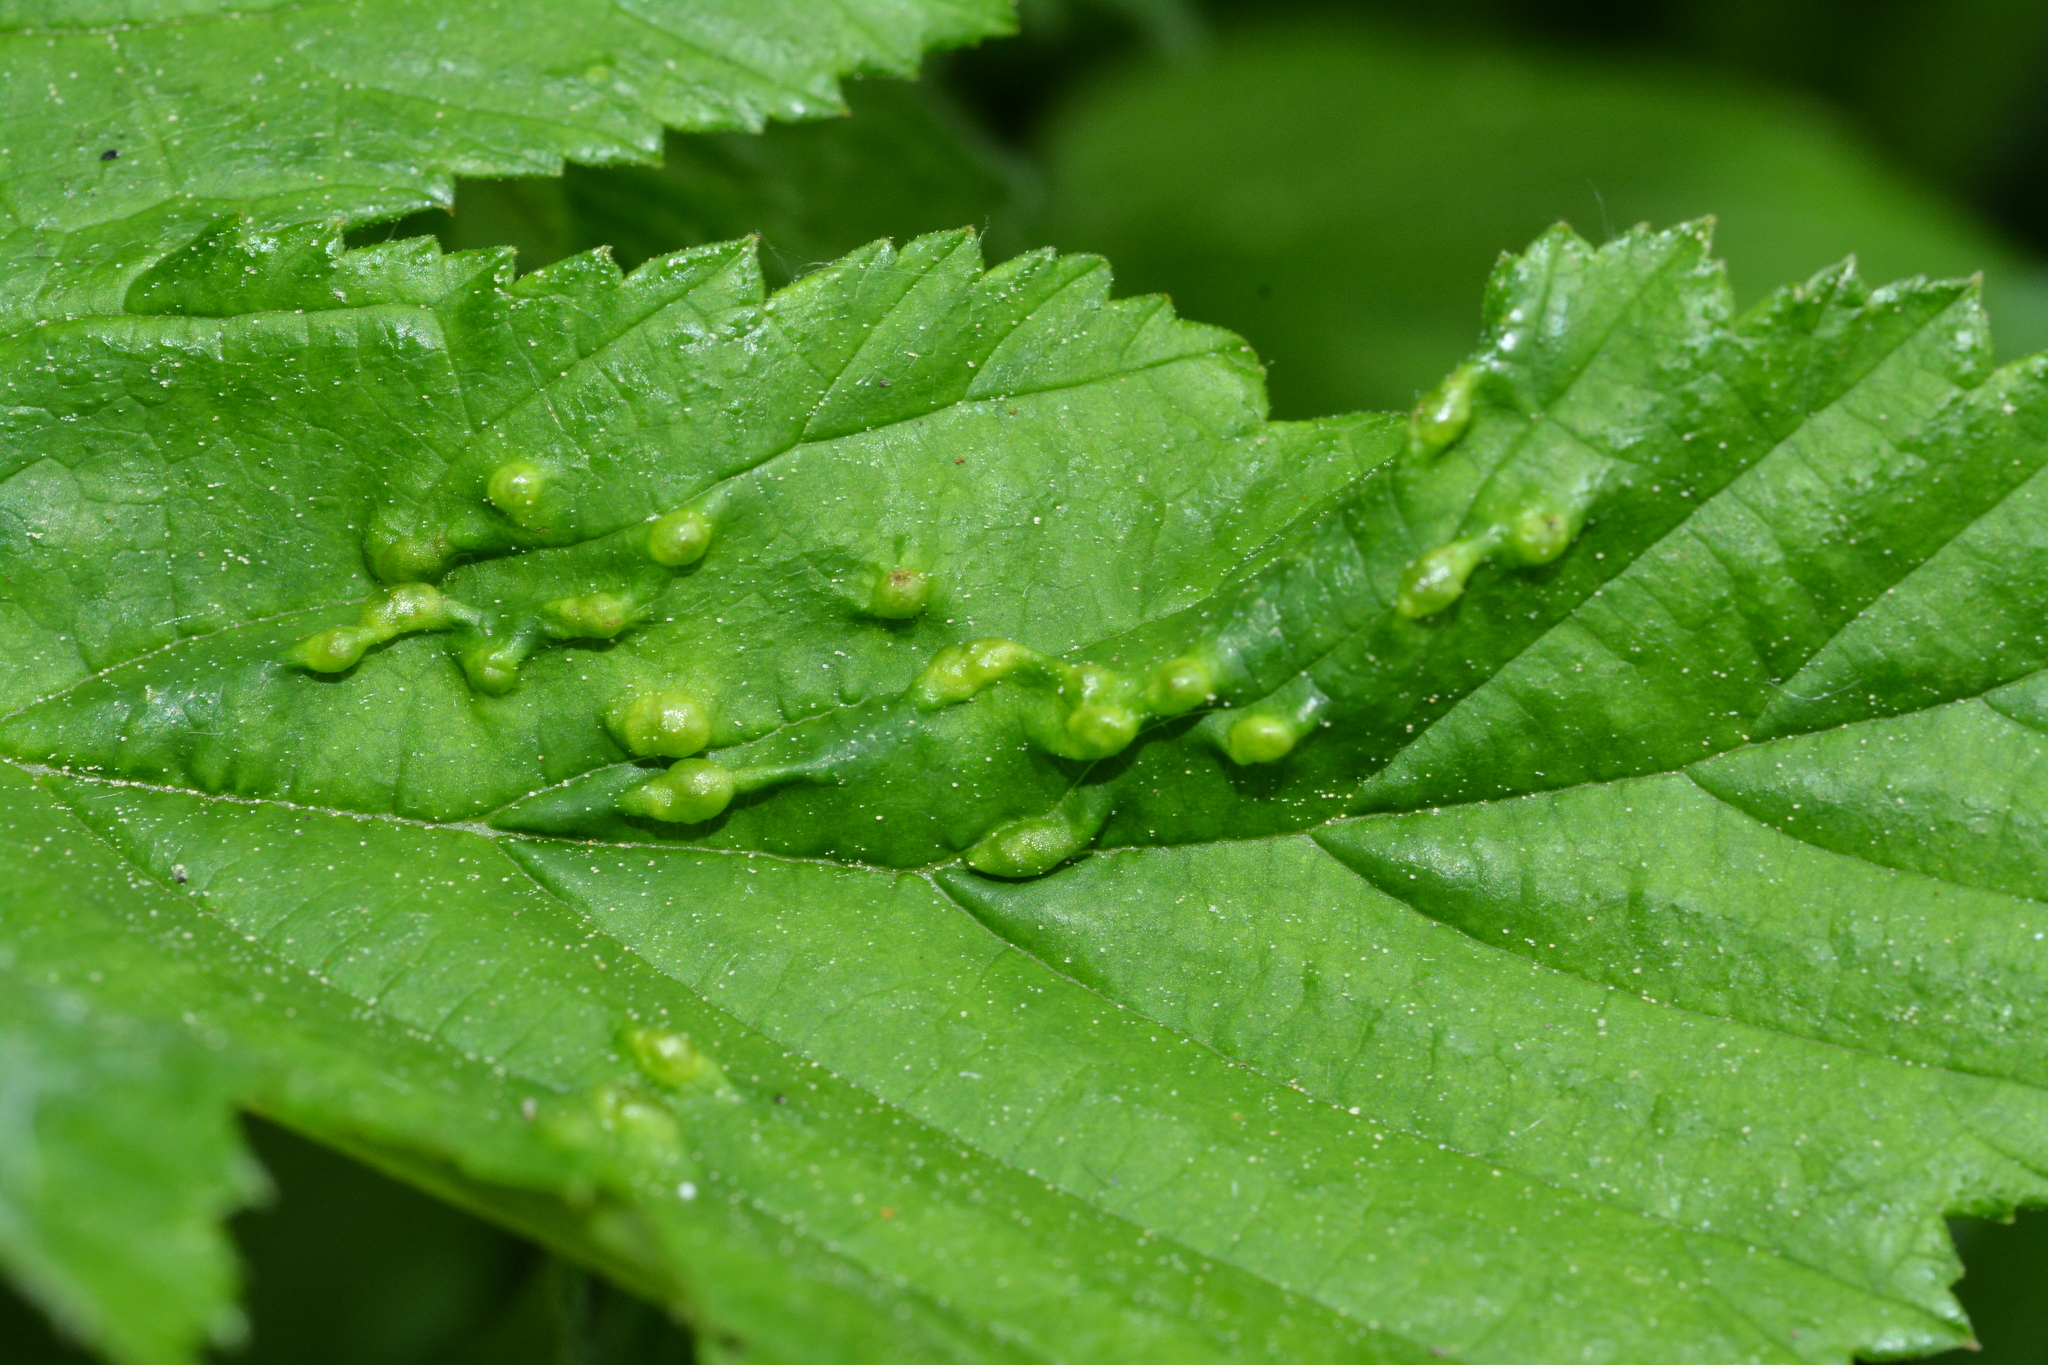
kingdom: Animalia
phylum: Arthropoda
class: Insecta
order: Diptera
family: Cecidomyiidae
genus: Dasineura
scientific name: Dasineura ulmaria
